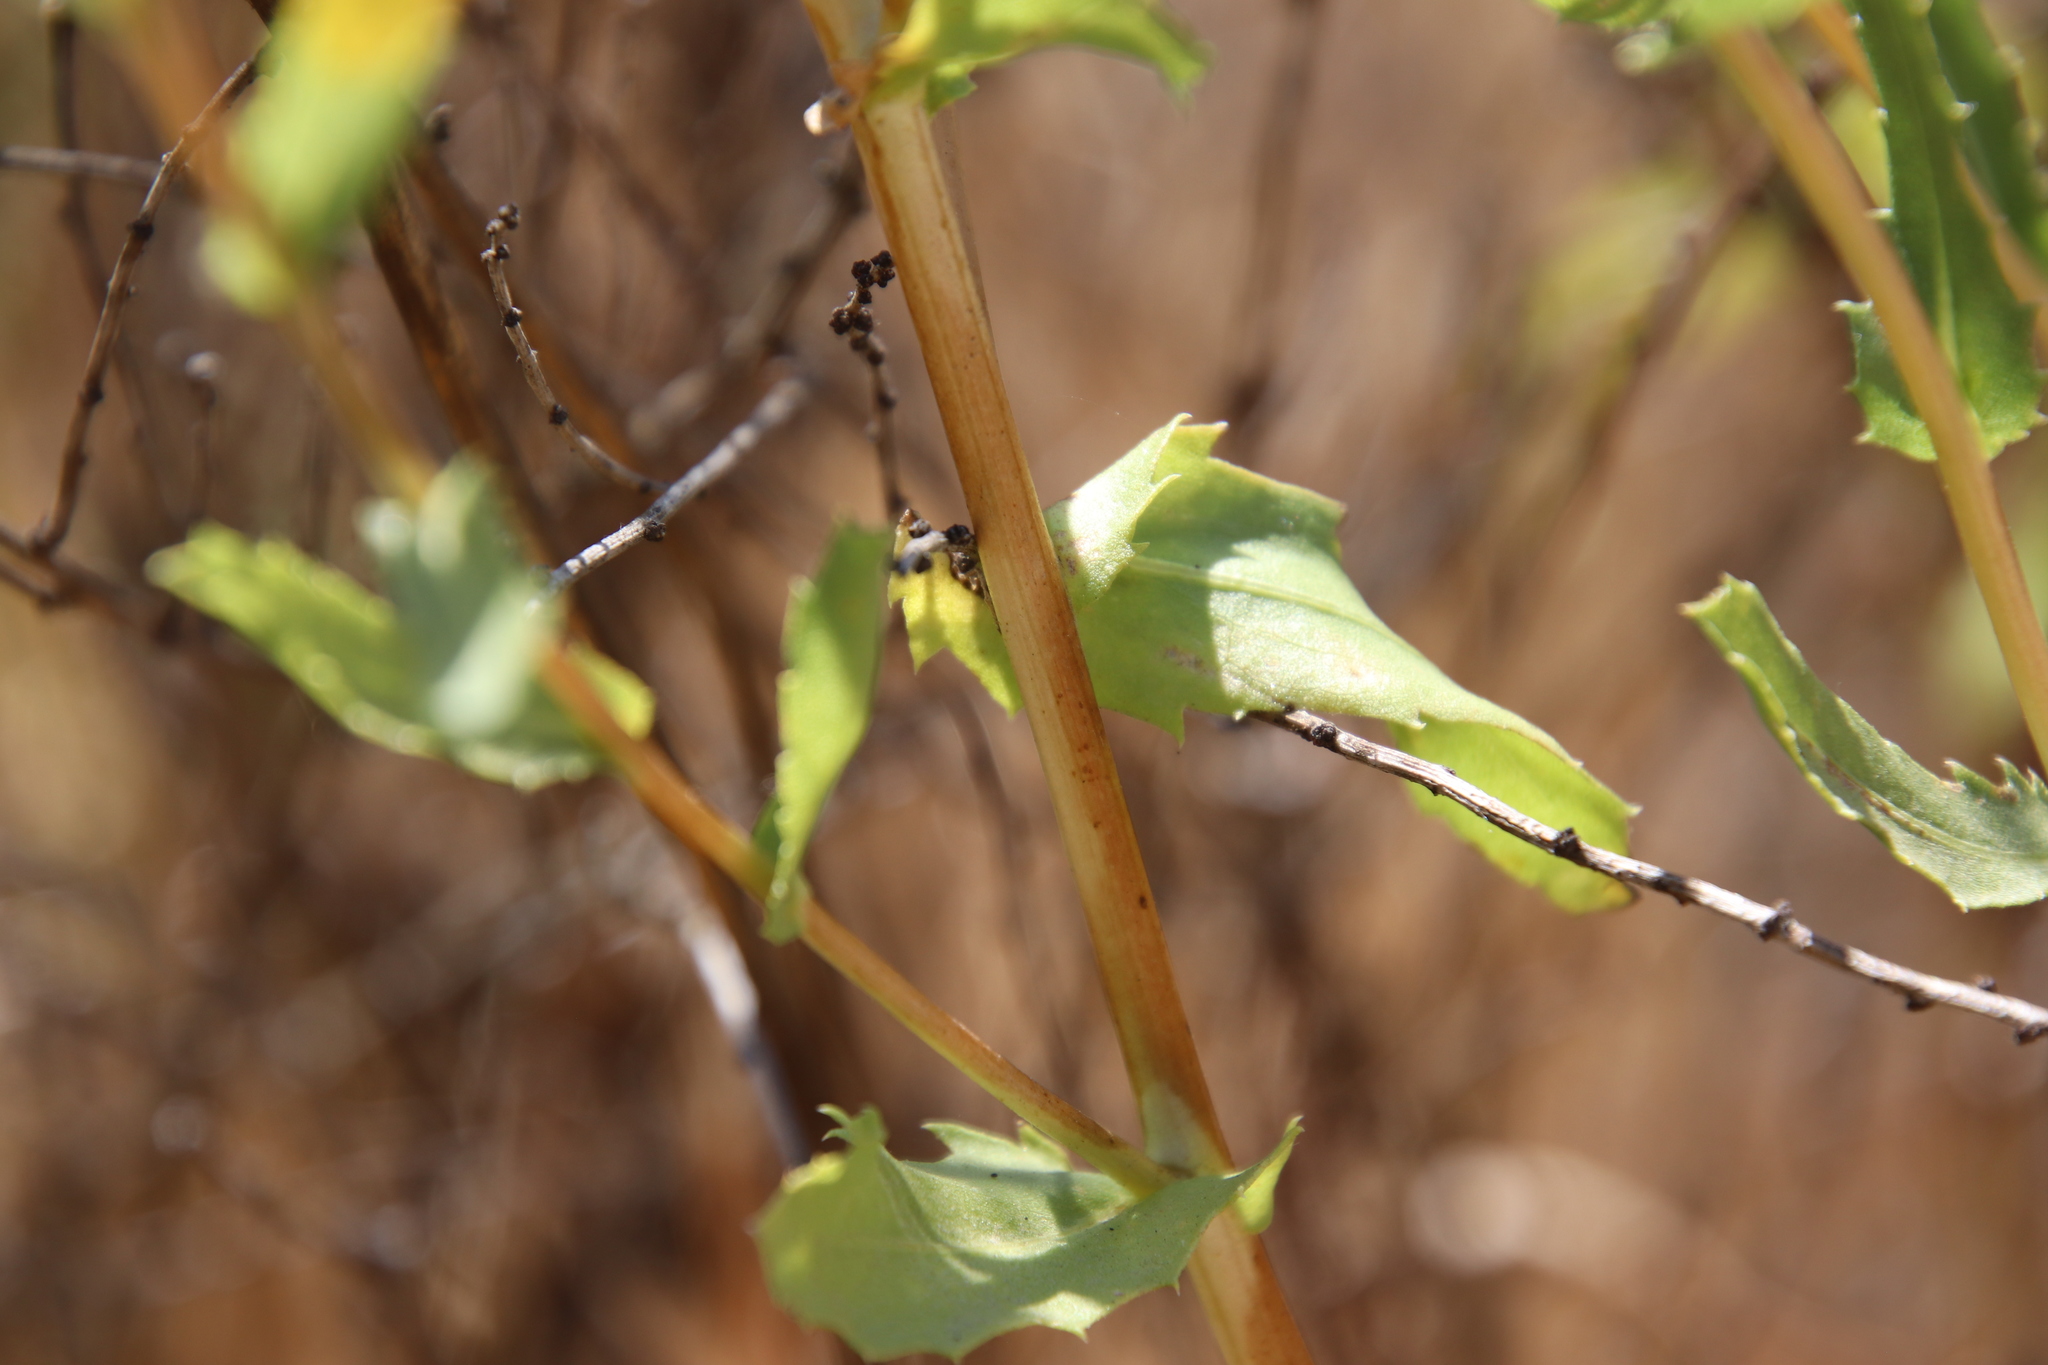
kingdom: Plantae
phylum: Tracheophyta
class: Magnoliopsida
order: Asterales
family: Asteraceae
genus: Grindelia
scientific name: Grindelia hirsutula
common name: Hairy gumweed
